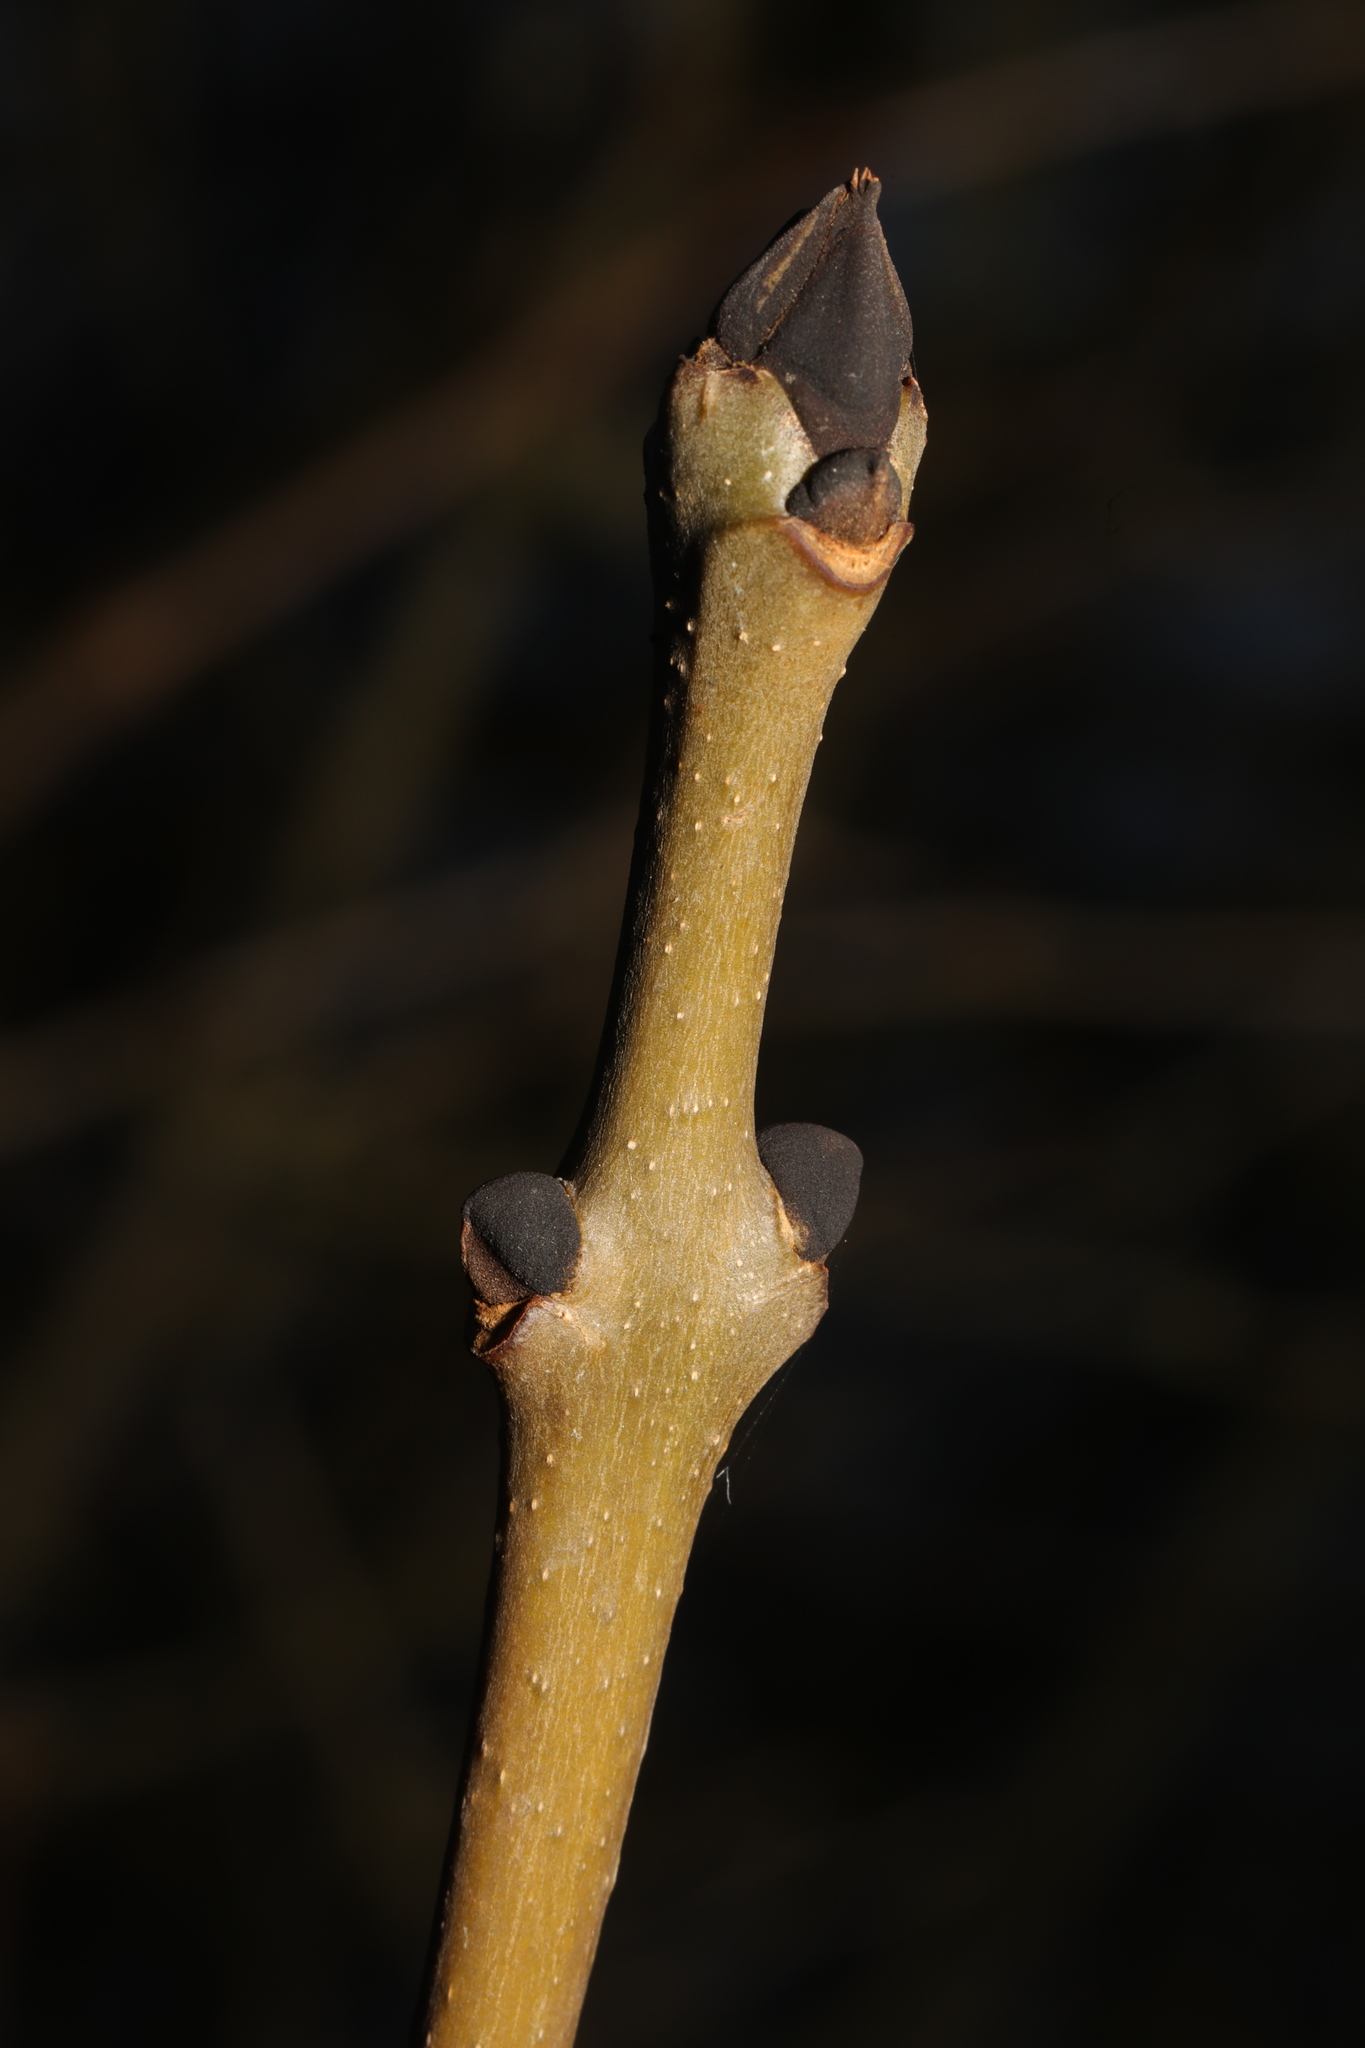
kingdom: Plantae
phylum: Tracheophyta
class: Magnoliopsida
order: Lamiales
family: Oleaceae
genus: Fraxinus
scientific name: Fraxinus excelsior
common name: European ash
